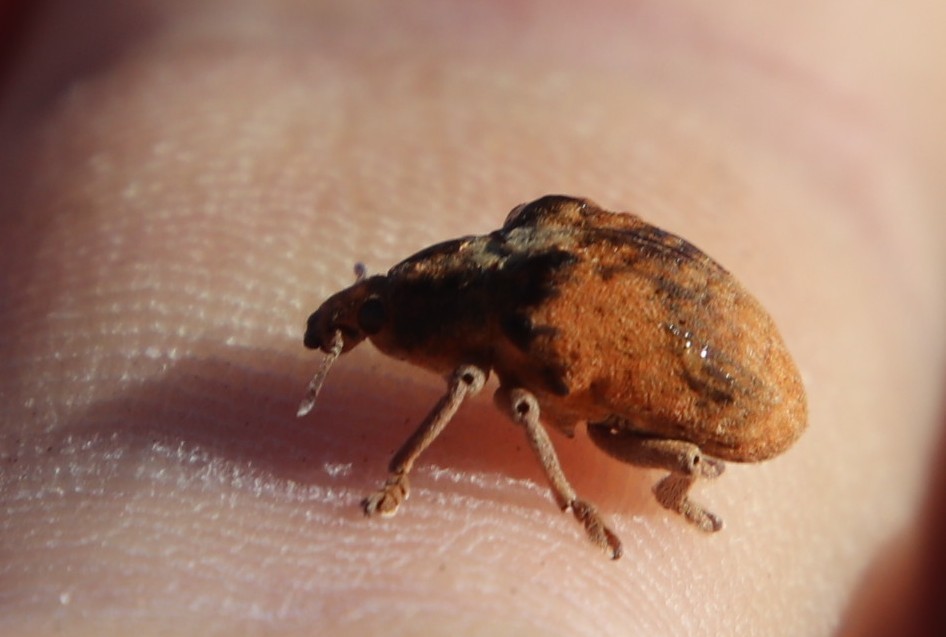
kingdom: Animalia
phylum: Arthropoda
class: Insecta
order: Coleoptera
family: Curculionidae
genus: Gonipterus
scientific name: Gonipterus
